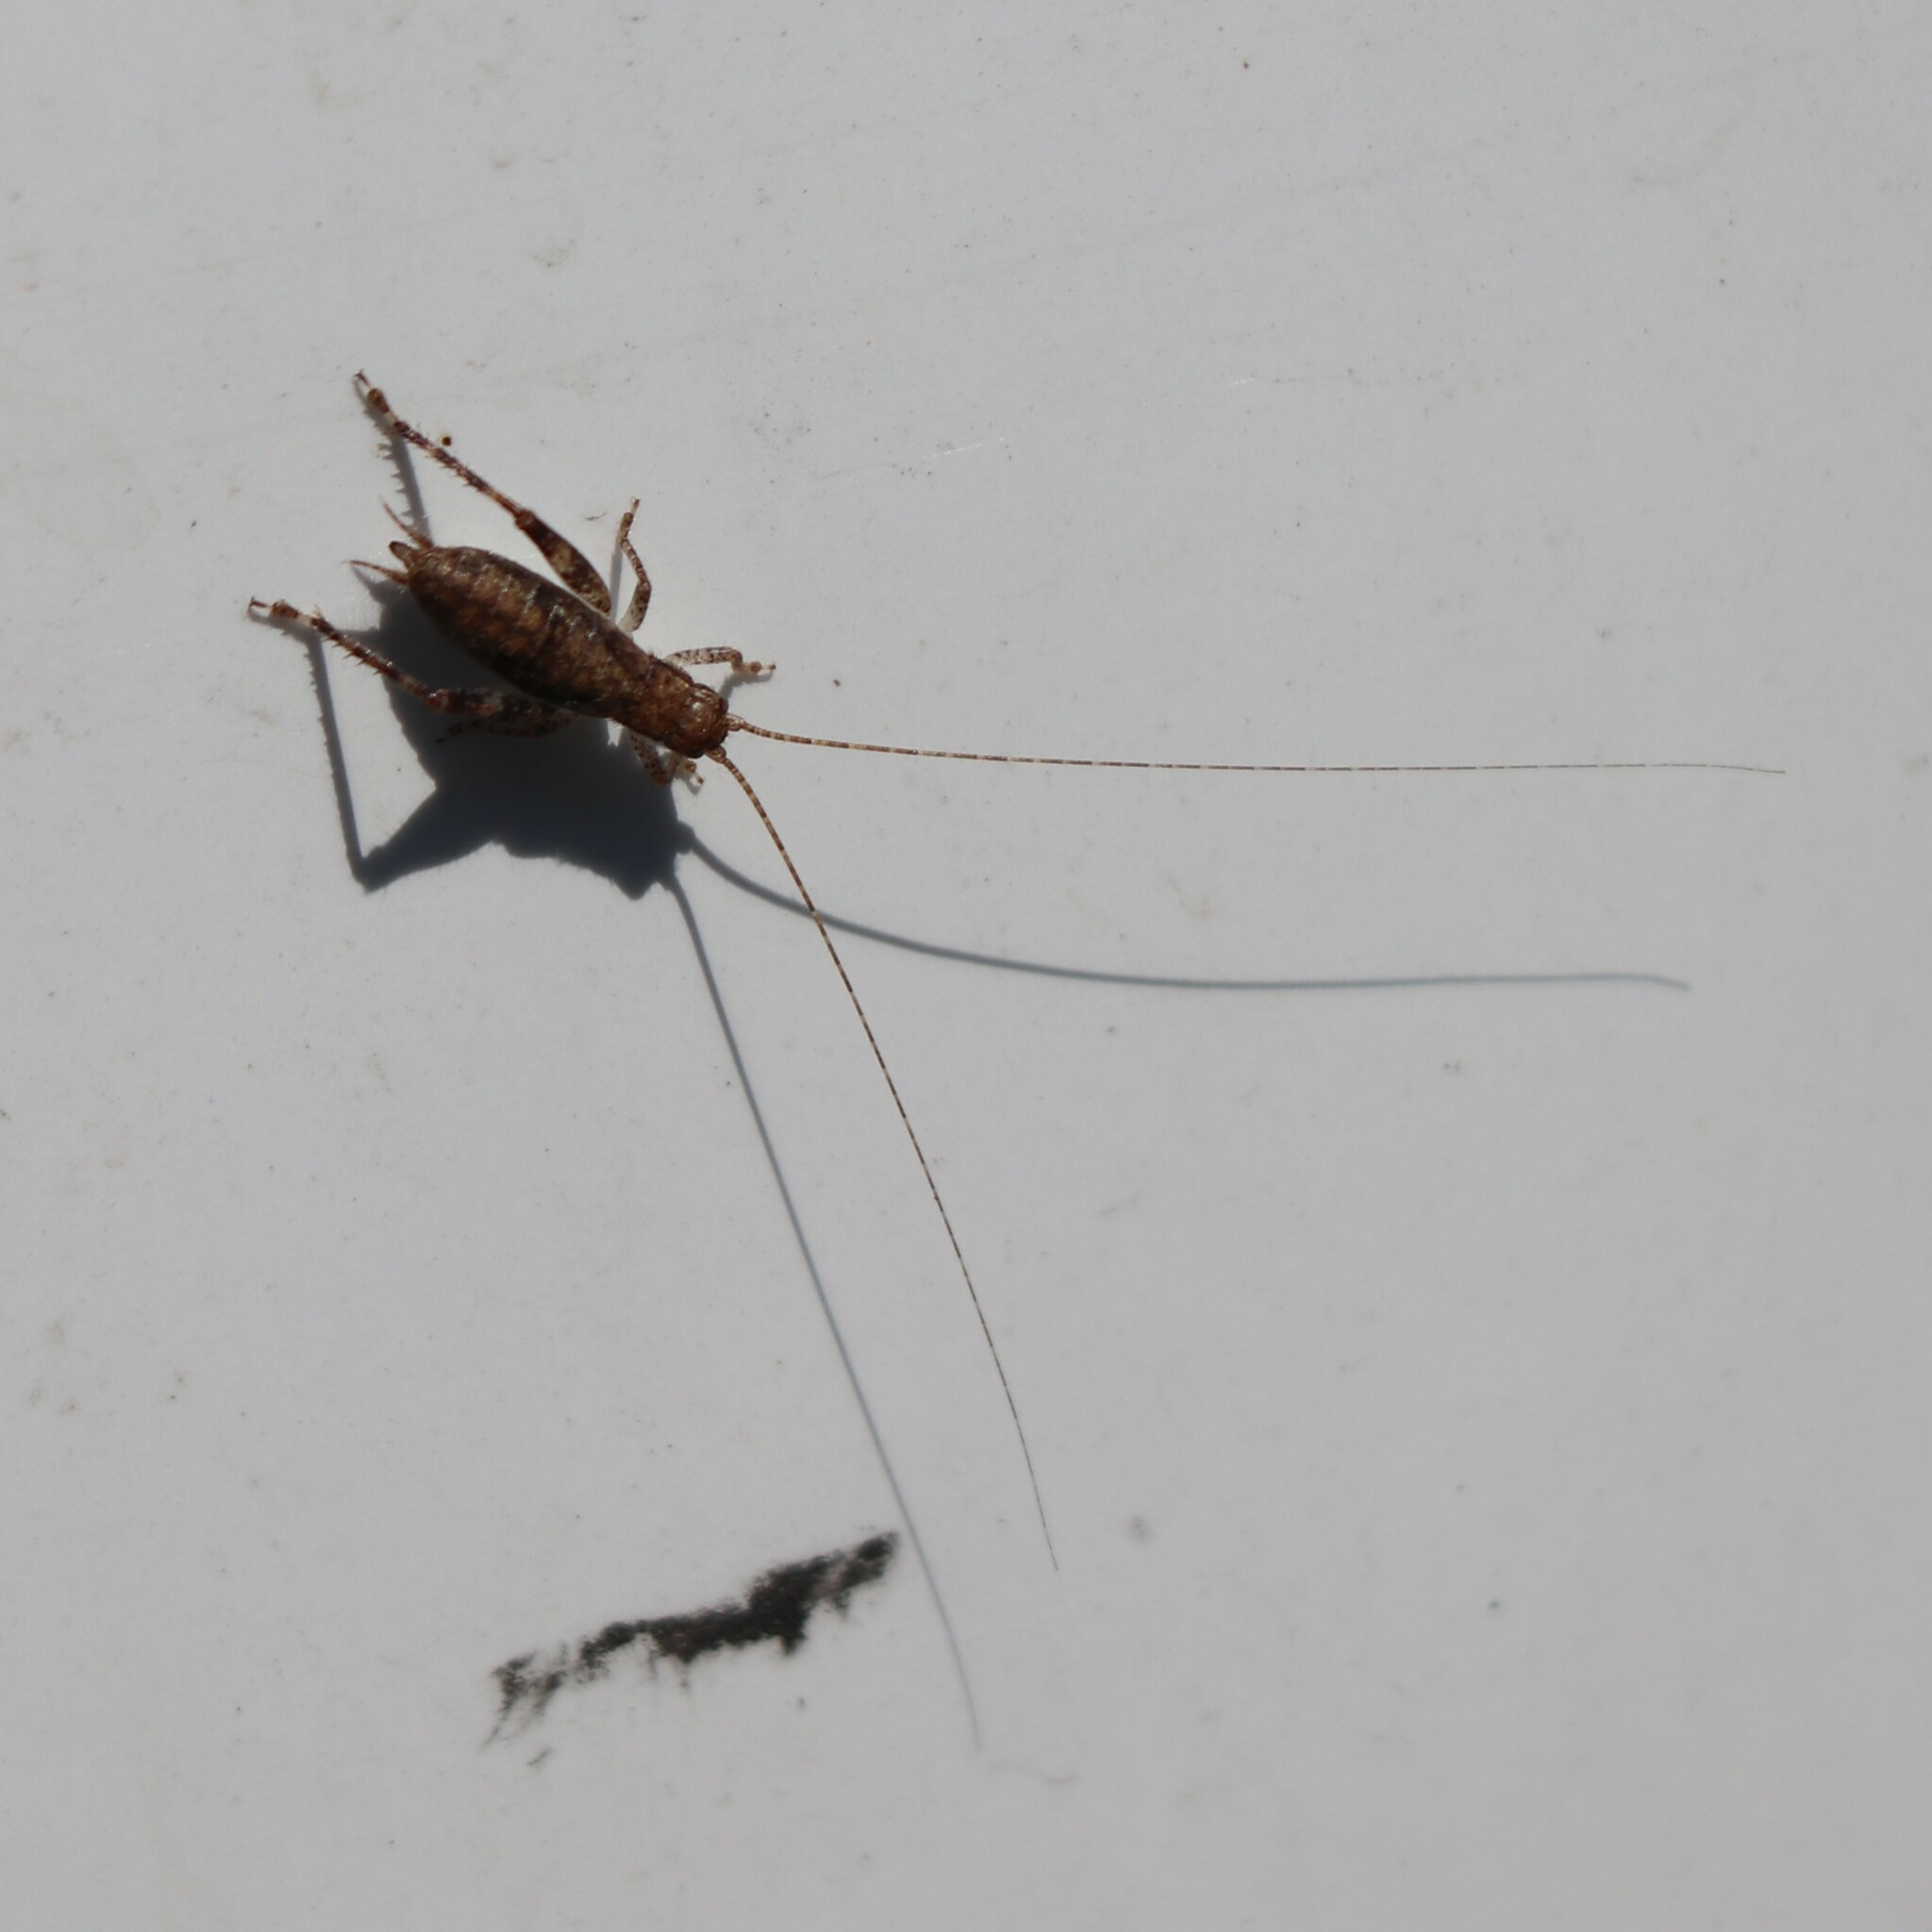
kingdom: Animalia
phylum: Arthropoda
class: Insecta
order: Orthoptera
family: Gryllidae
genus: Hapithus
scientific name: Hapithus saltator
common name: Jumping bush cricket
